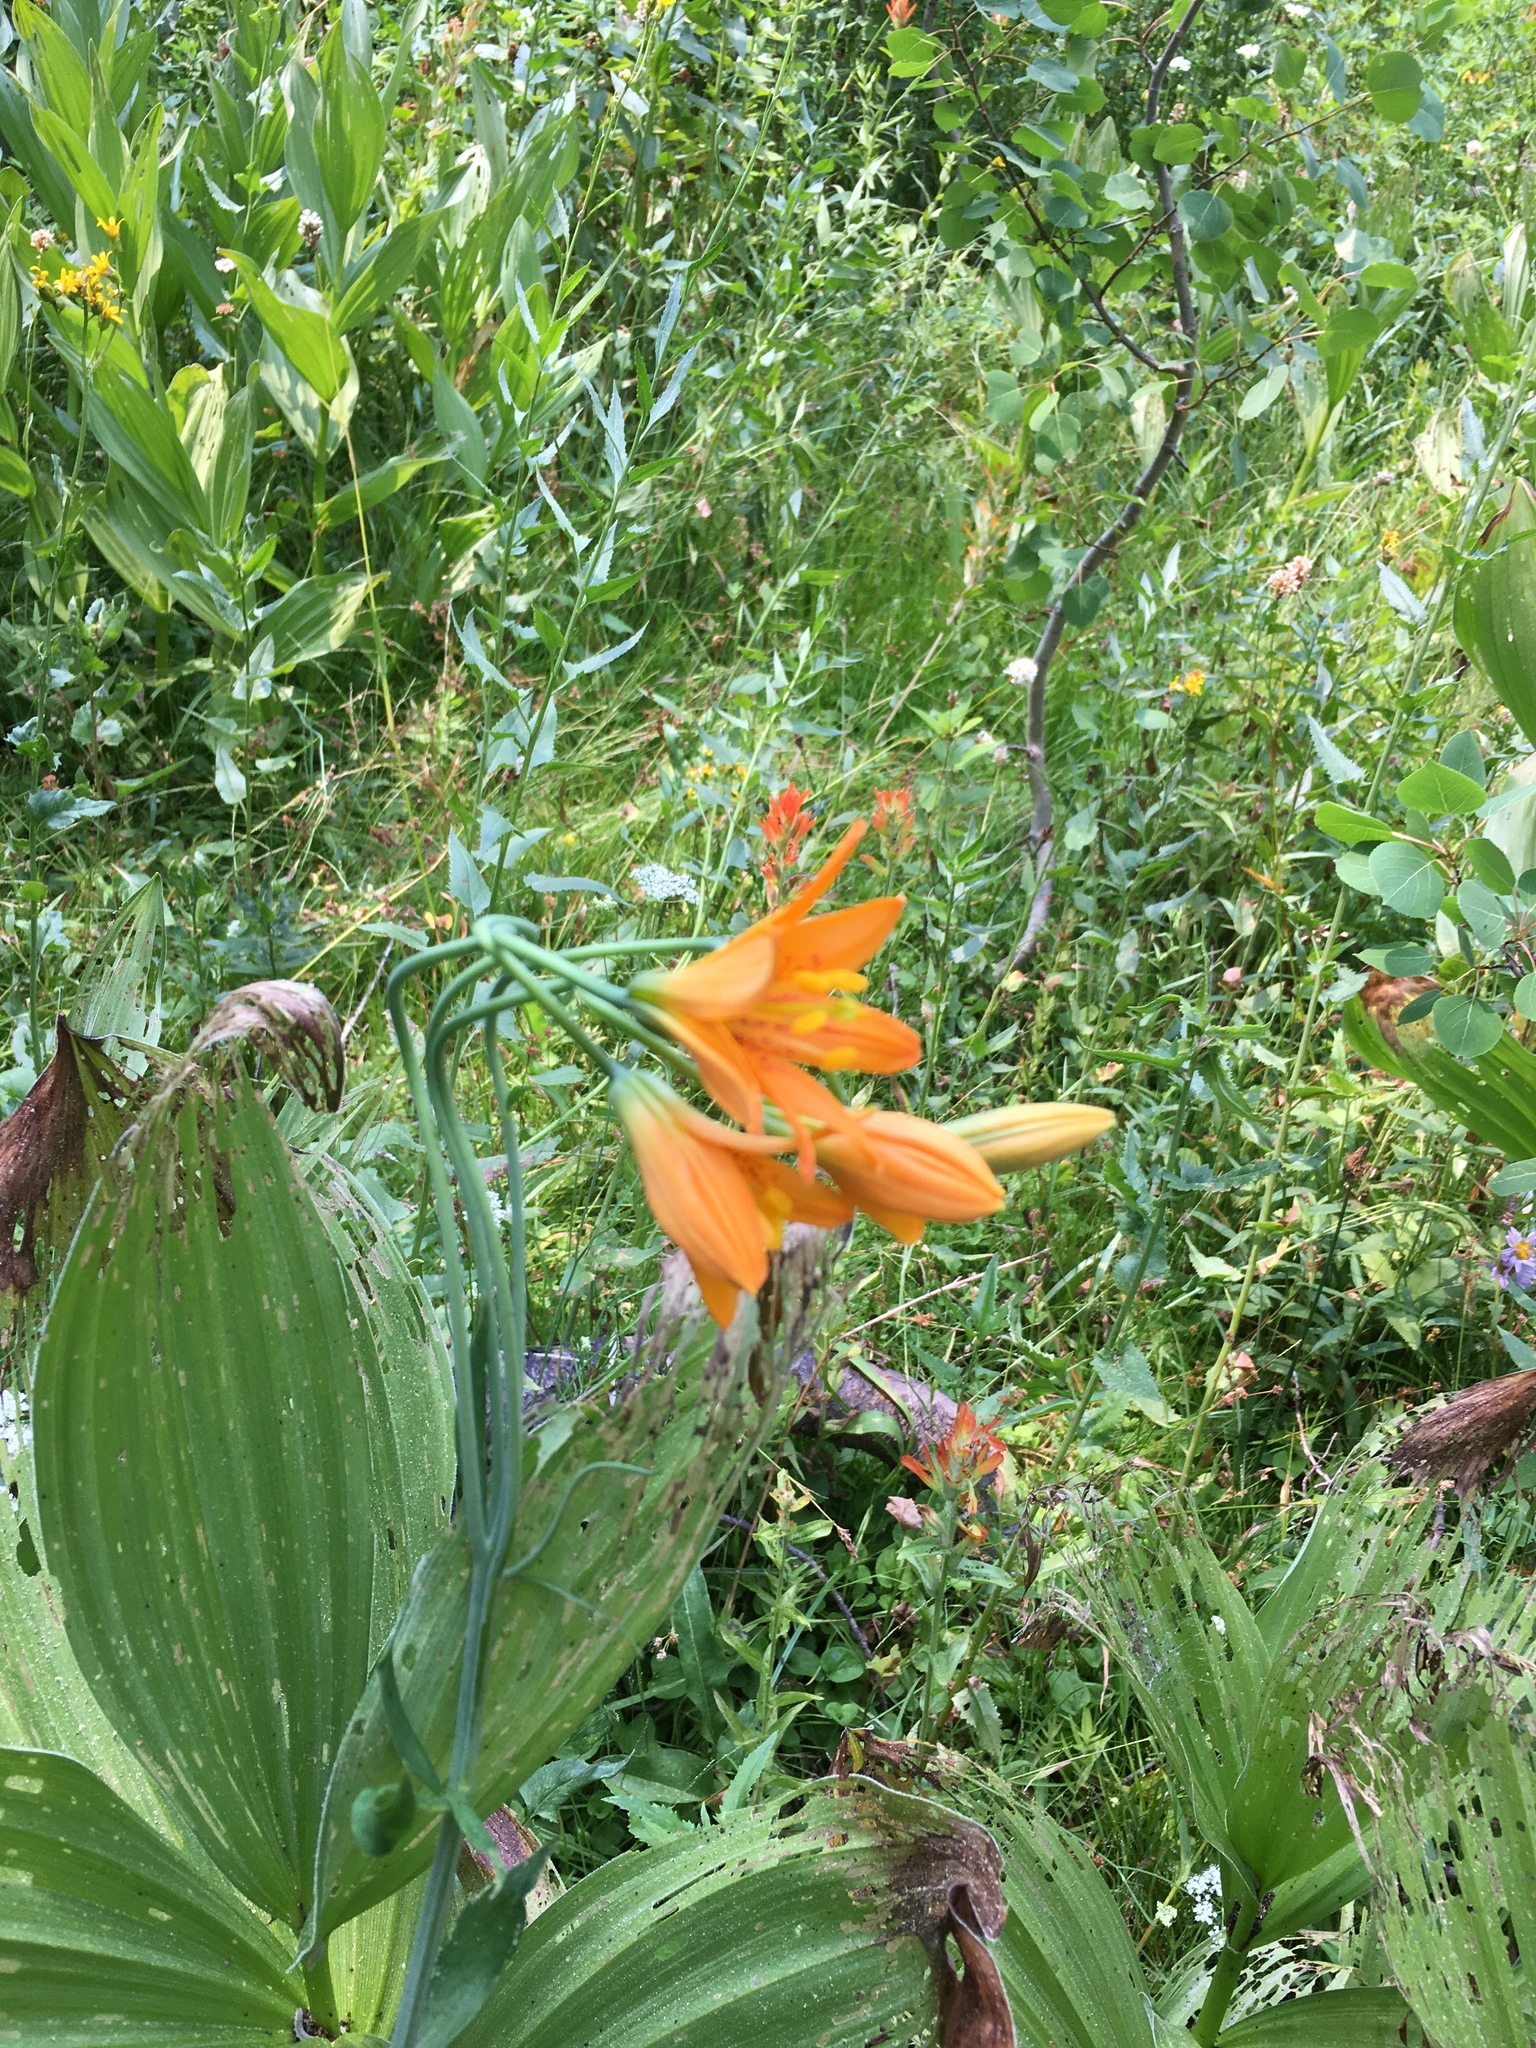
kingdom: Plantae
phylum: Tracheophyta
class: Liliopsida
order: Liliales
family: Liliaceae
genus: Lilium
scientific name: Lilium parvum
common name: Alpine lily
